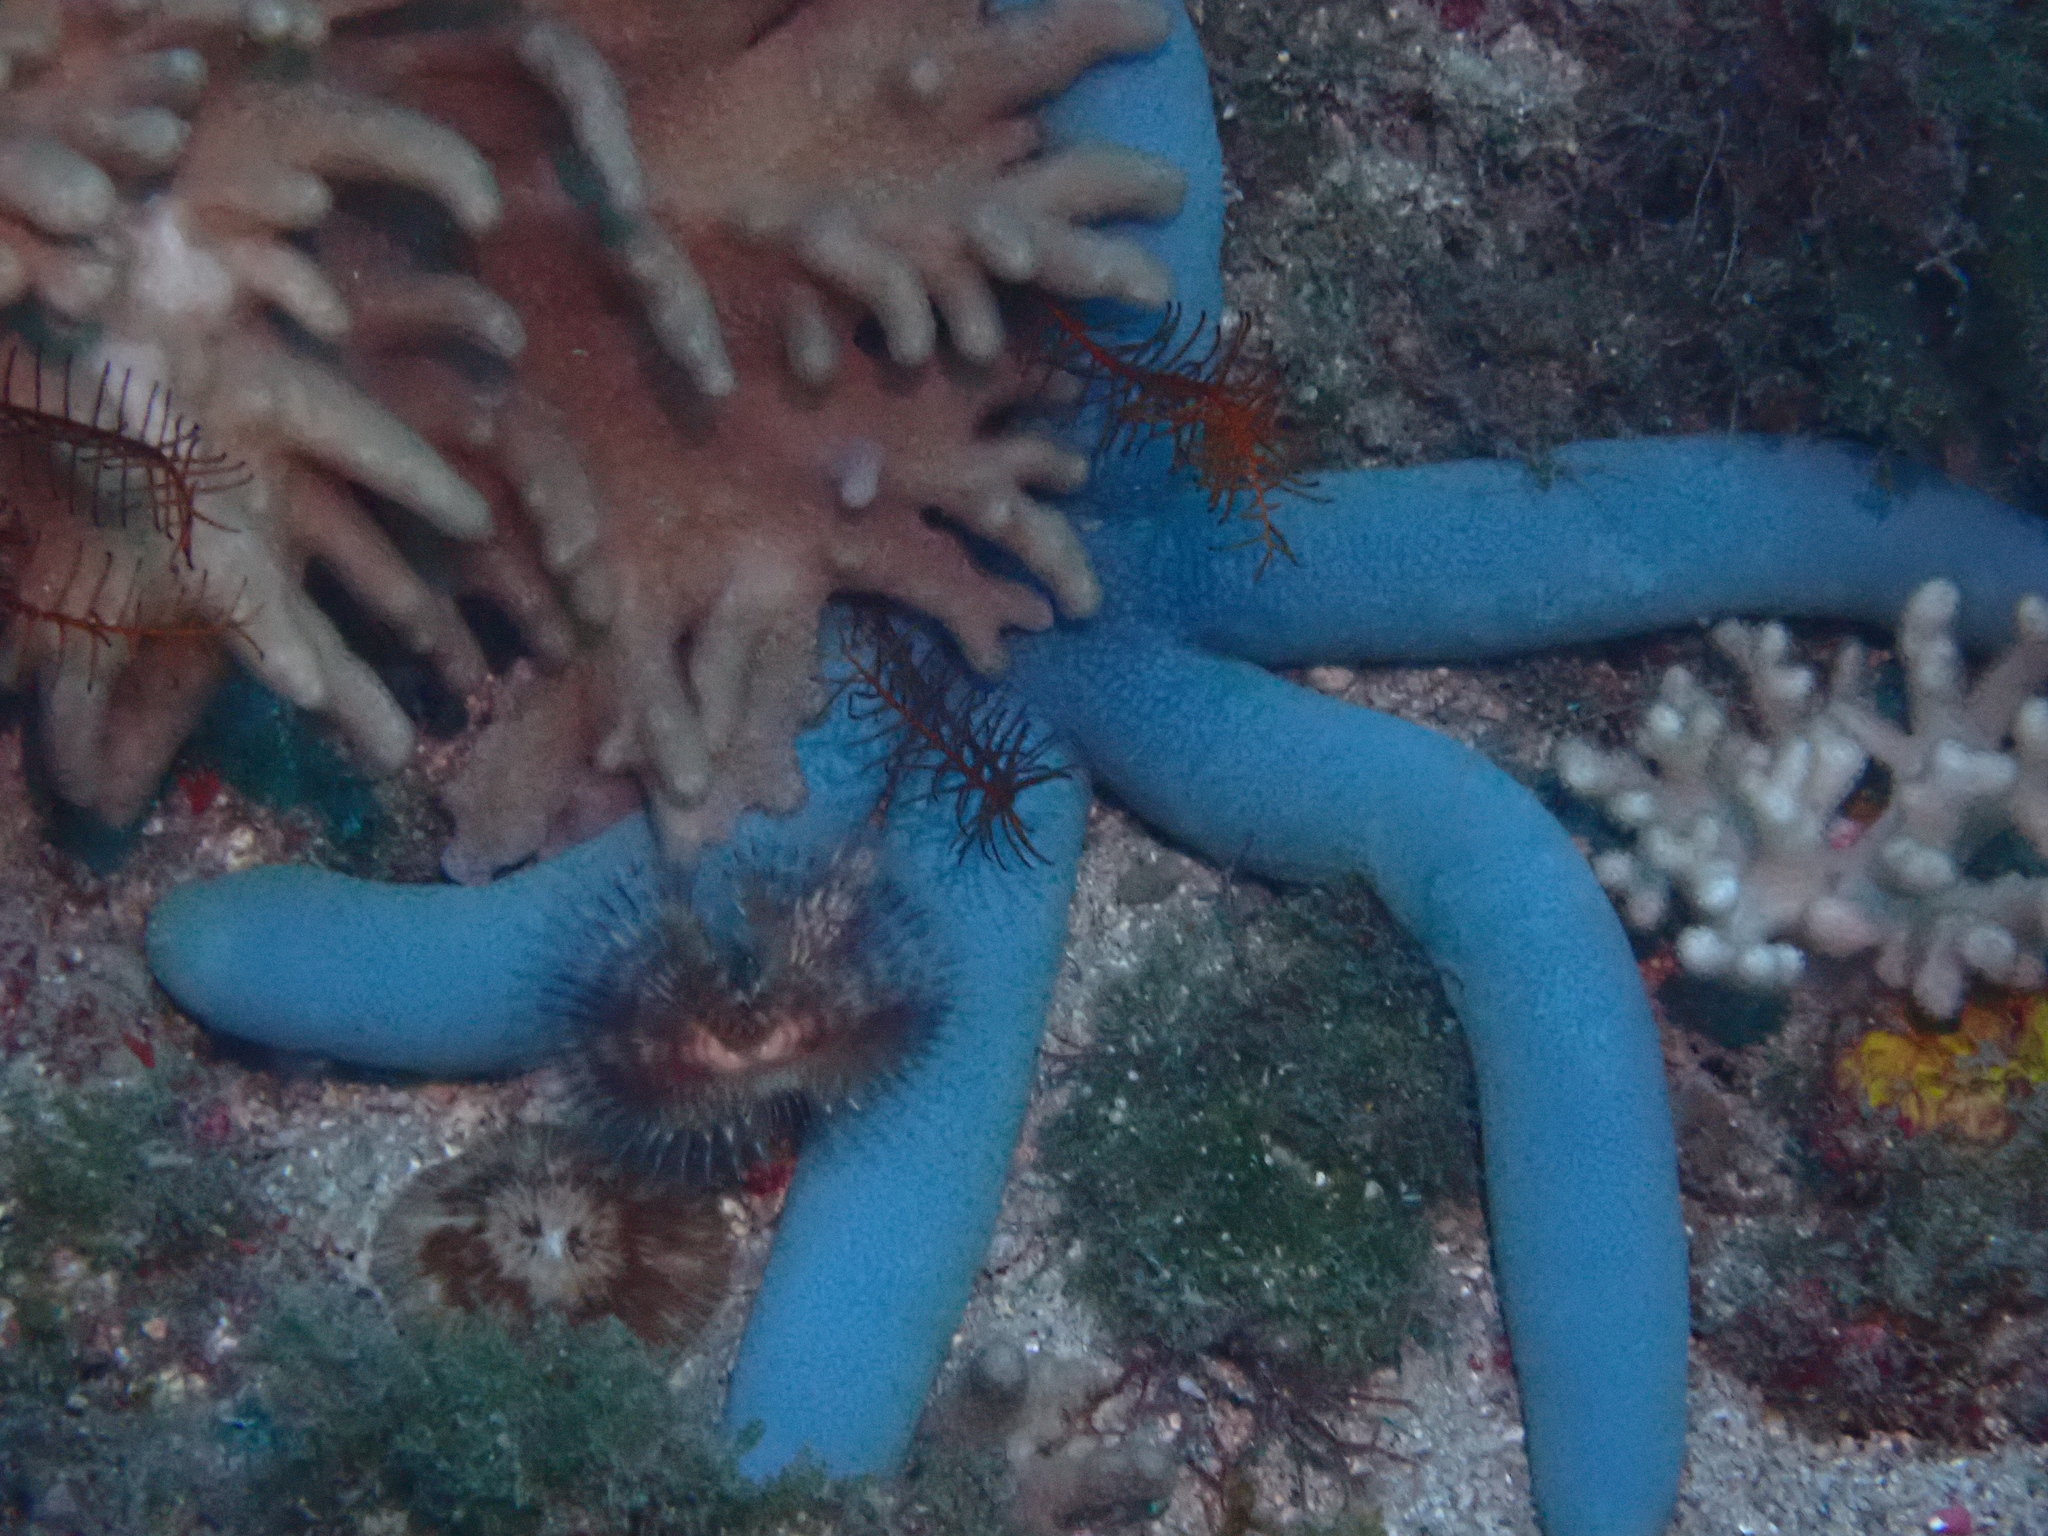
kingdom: Animalia
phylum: Echinodermata
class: Asteroidea
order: Valvatida
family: Ophidiasteridae
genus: Linckia
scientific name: Linckia laevigata
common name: Azure sea star
